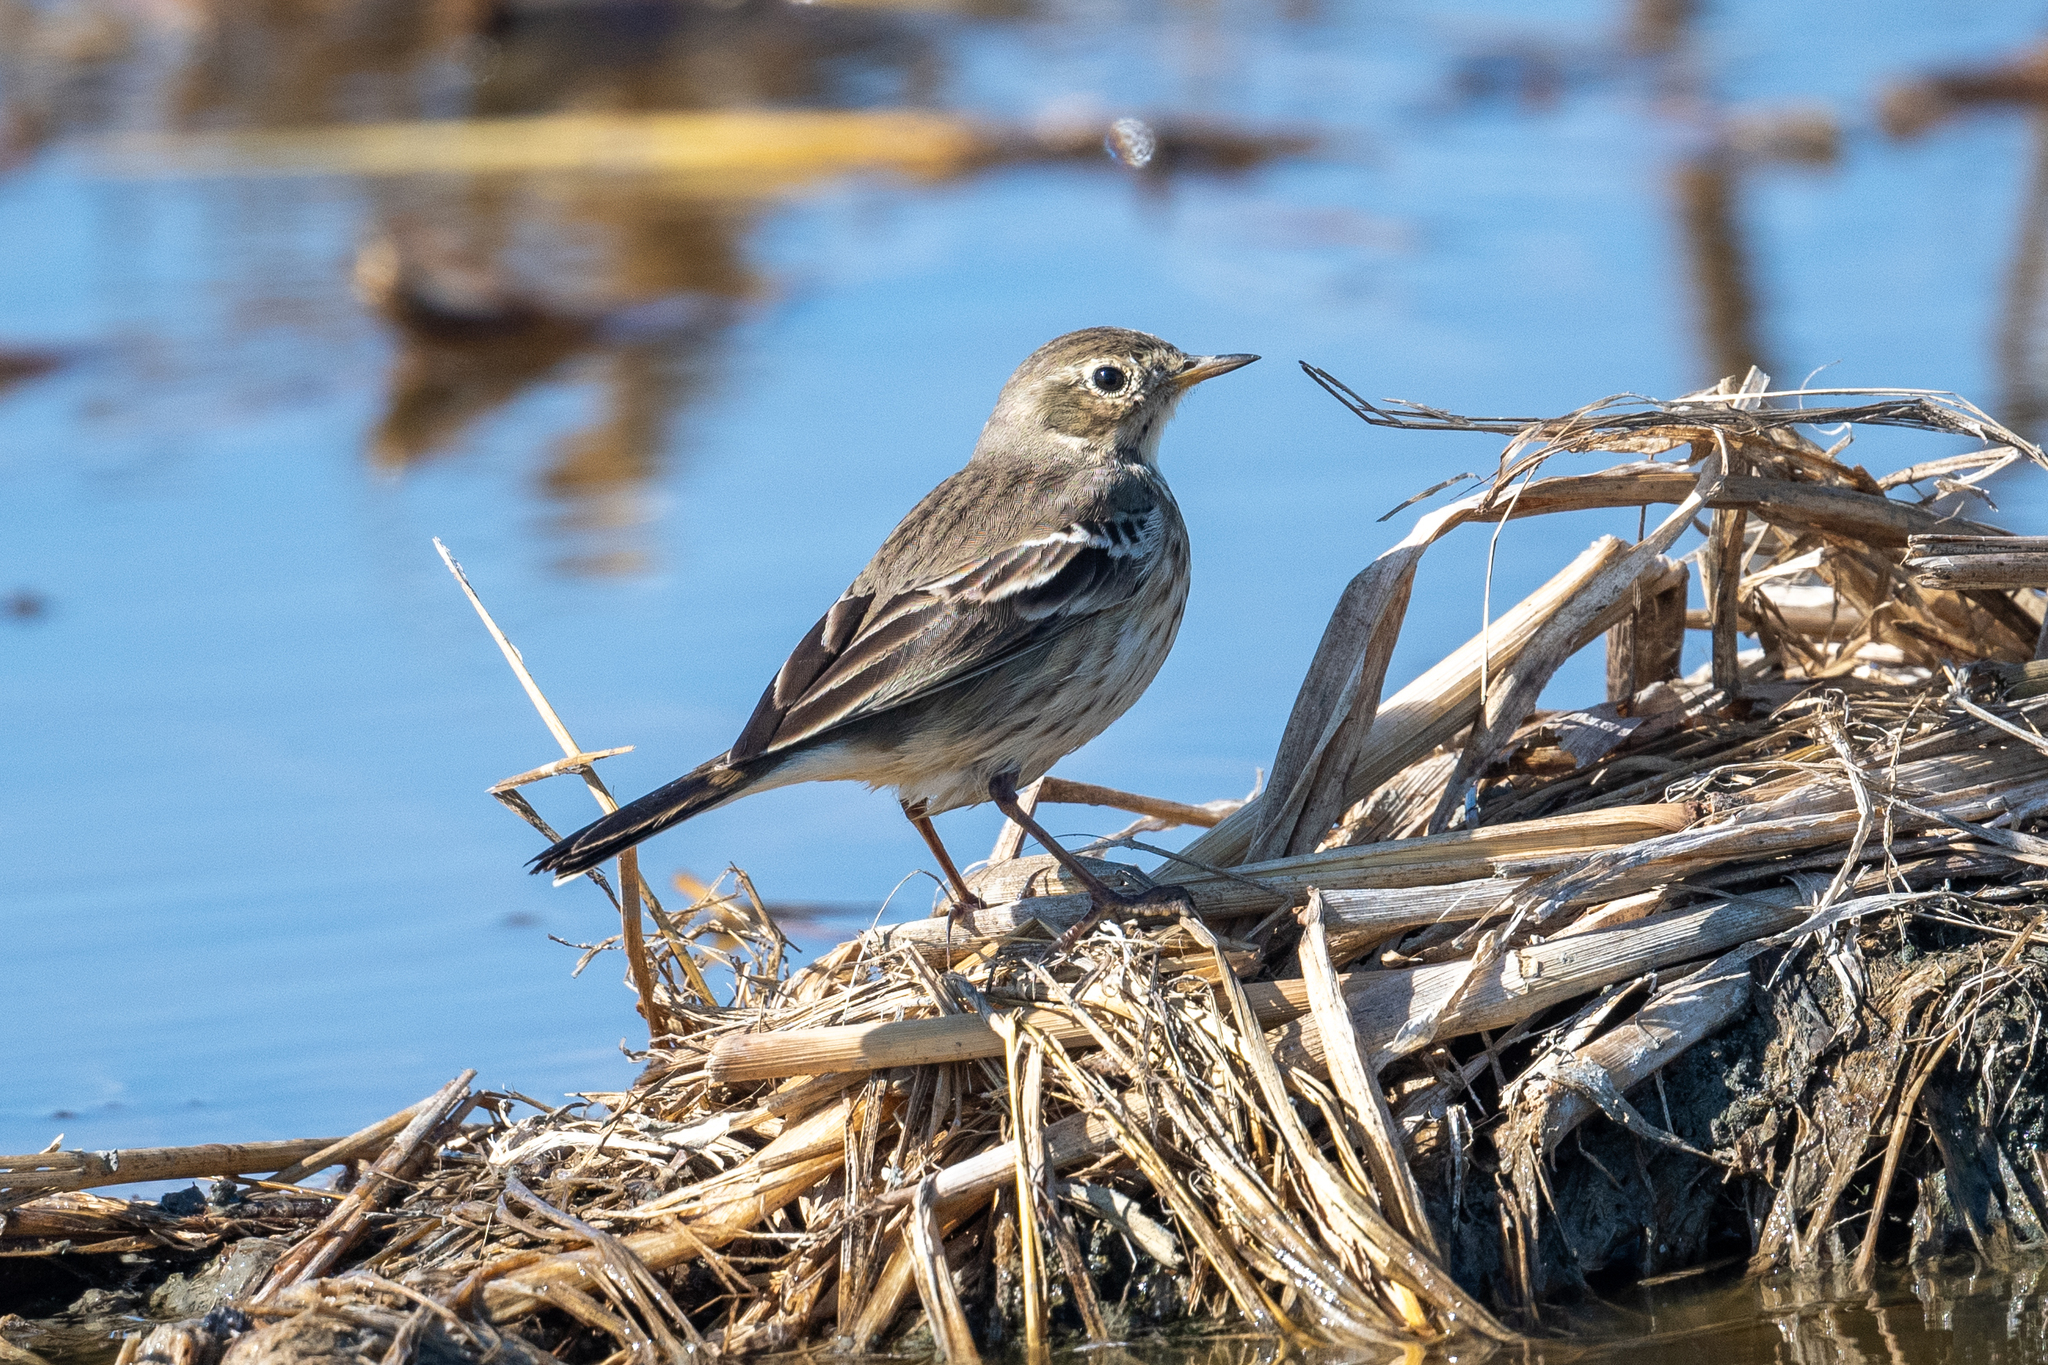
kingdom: Animalia
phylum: Chordata
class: Aves
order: Passeriformes
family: Motacillidae
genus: Anthus
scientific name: Anthus rubescens
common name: Buff-bellied pipit
